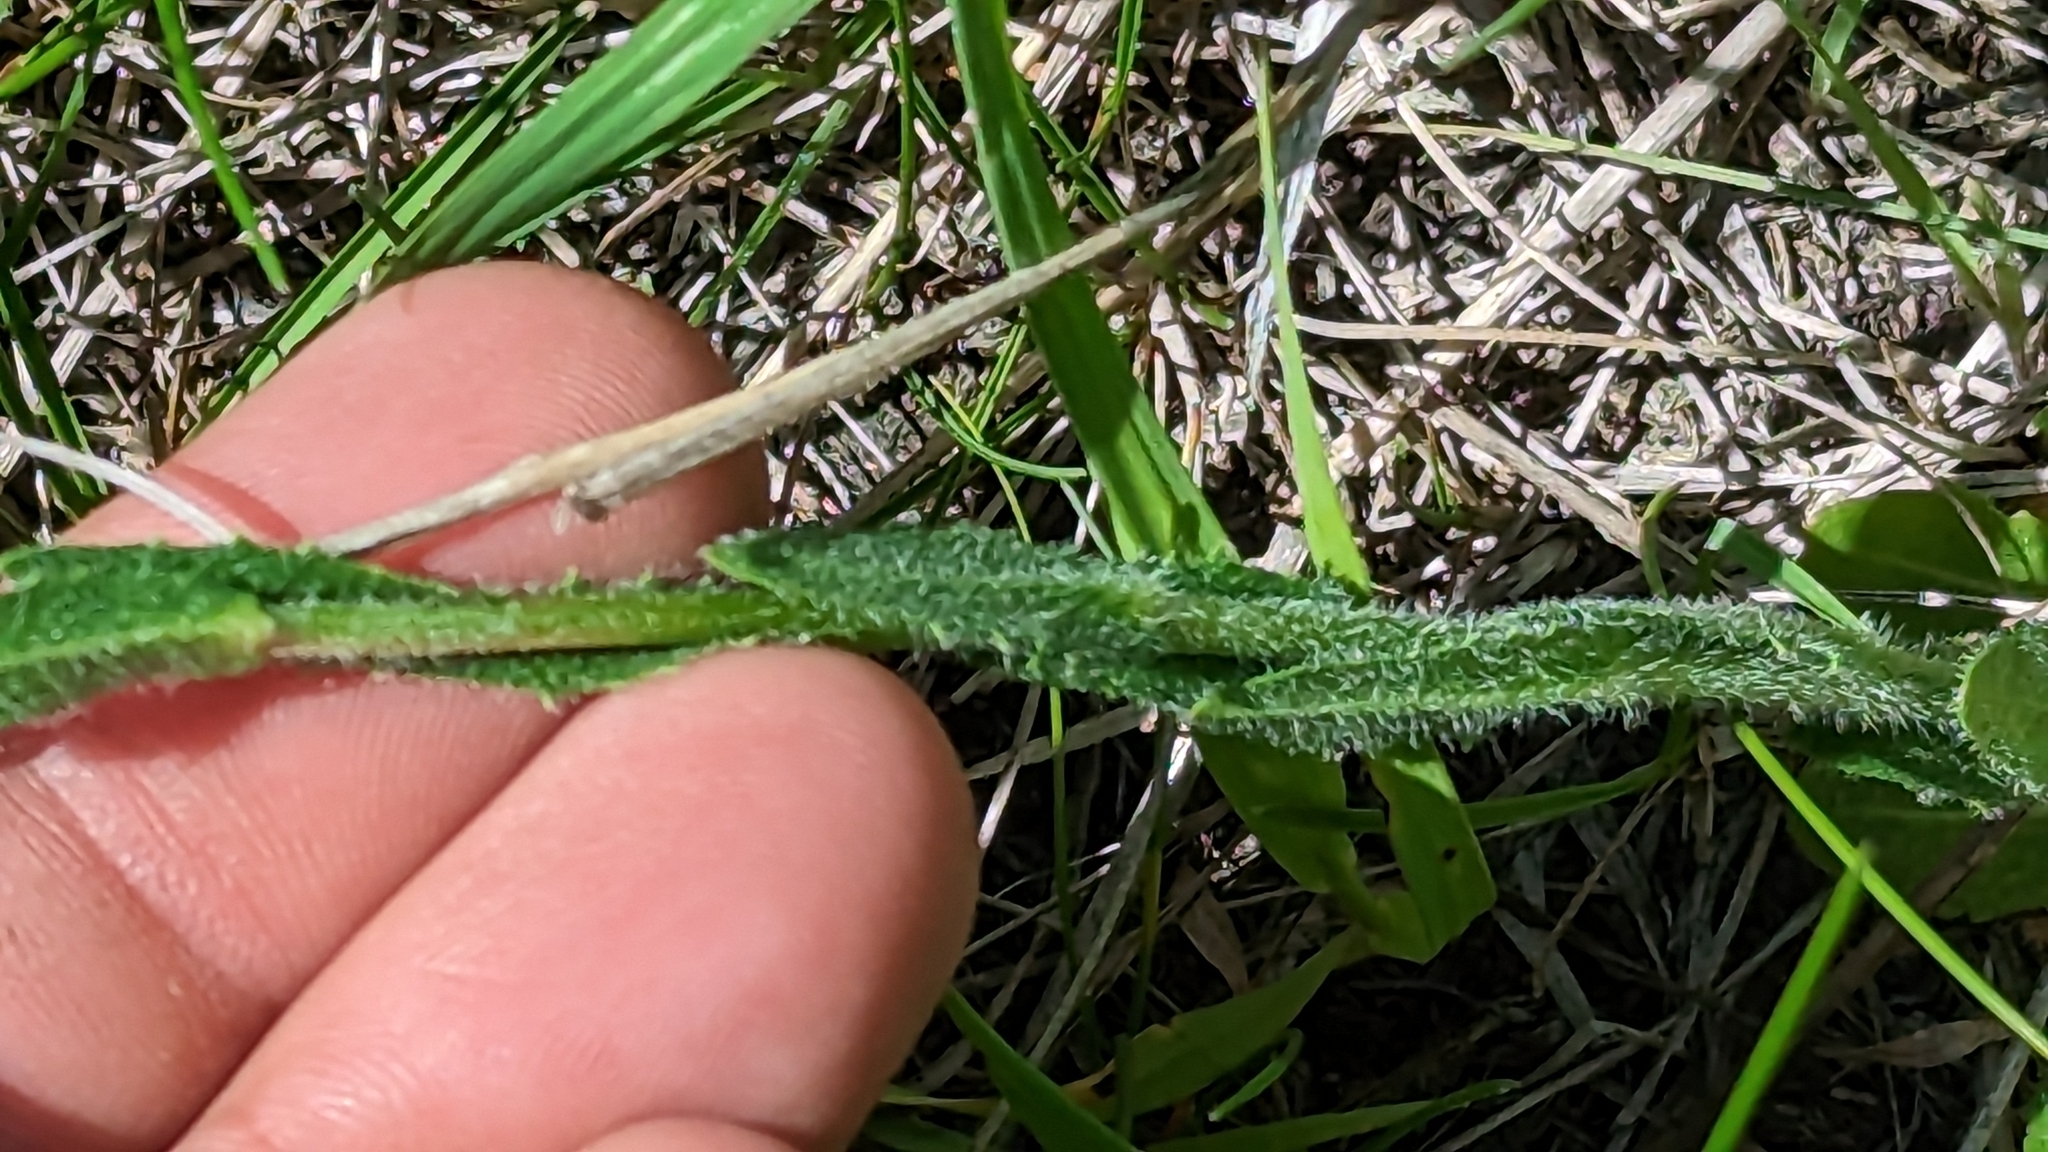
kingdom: Plantae
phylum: Tracheophyta
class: Magnoliopsida
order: Brassicales
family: Brassicaceae
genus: Arabis
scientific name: Arabis pycnocarpa
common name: Blushing rockcress
